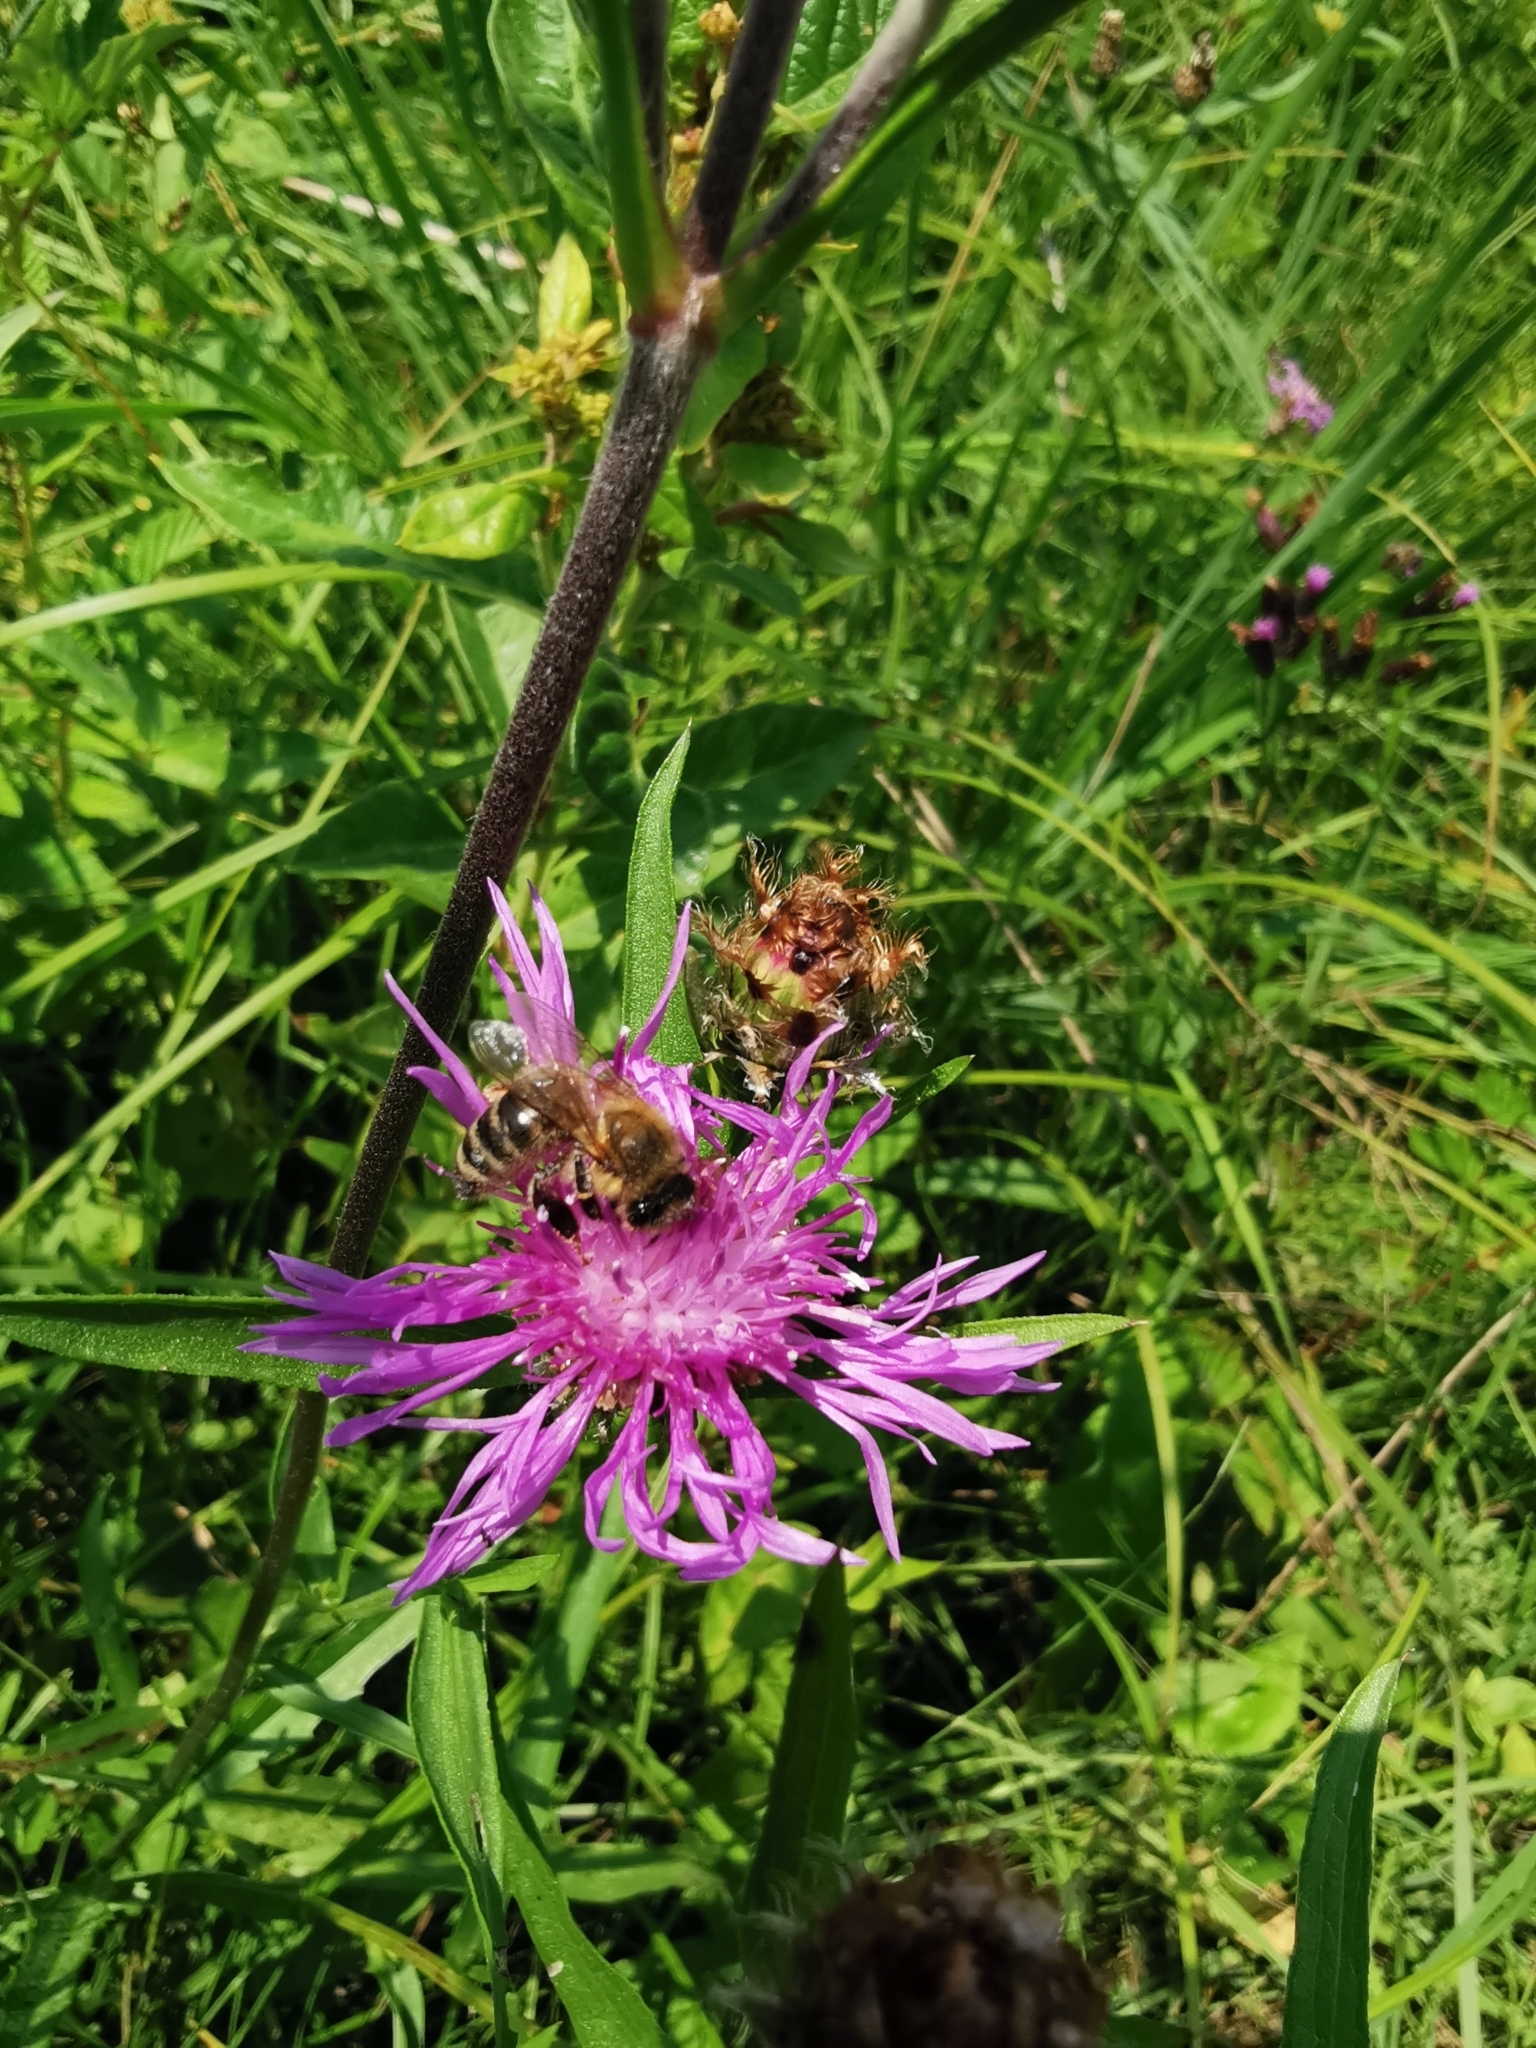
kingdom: Animalia
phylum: Arthropoda
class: Insecta
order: Hymenoptera
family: Apidae
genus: Apis
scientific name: Apis mellifera
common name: Honey bee
